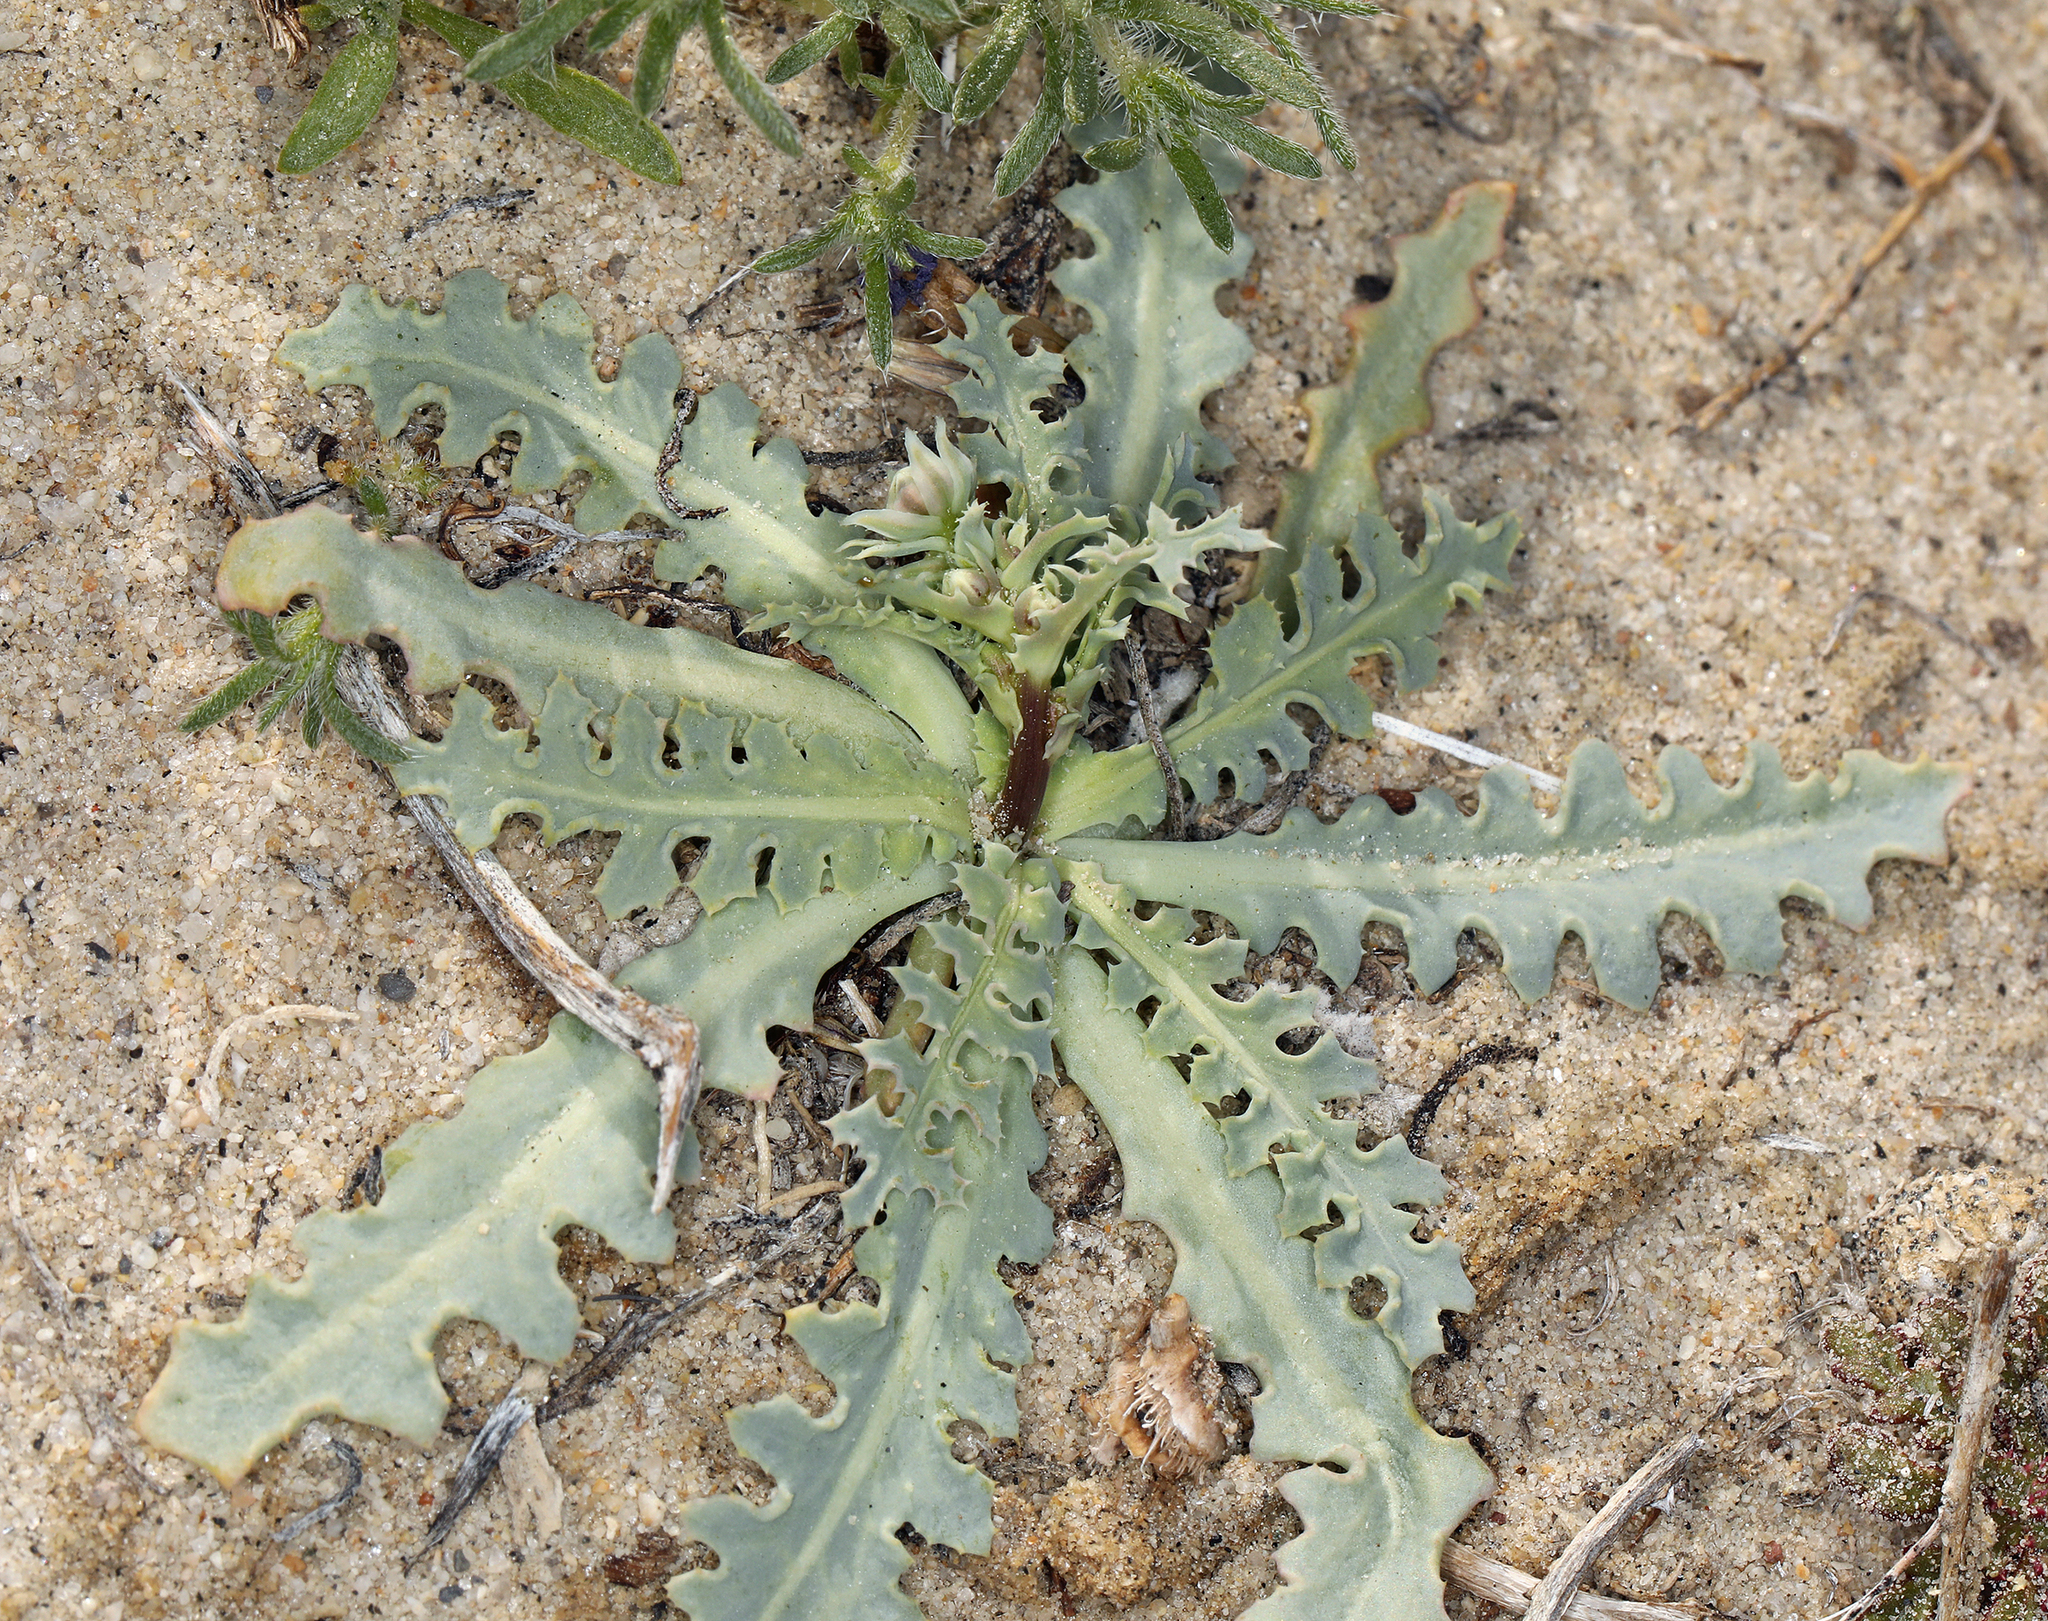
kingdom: Plantae
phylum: Tracheophyta
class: Magnoliopsida
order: Asterales
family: Asteraceae
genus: Malacothrix
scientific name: Malacothrix sonchoides
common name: Sow-thistle desert-dandelion
